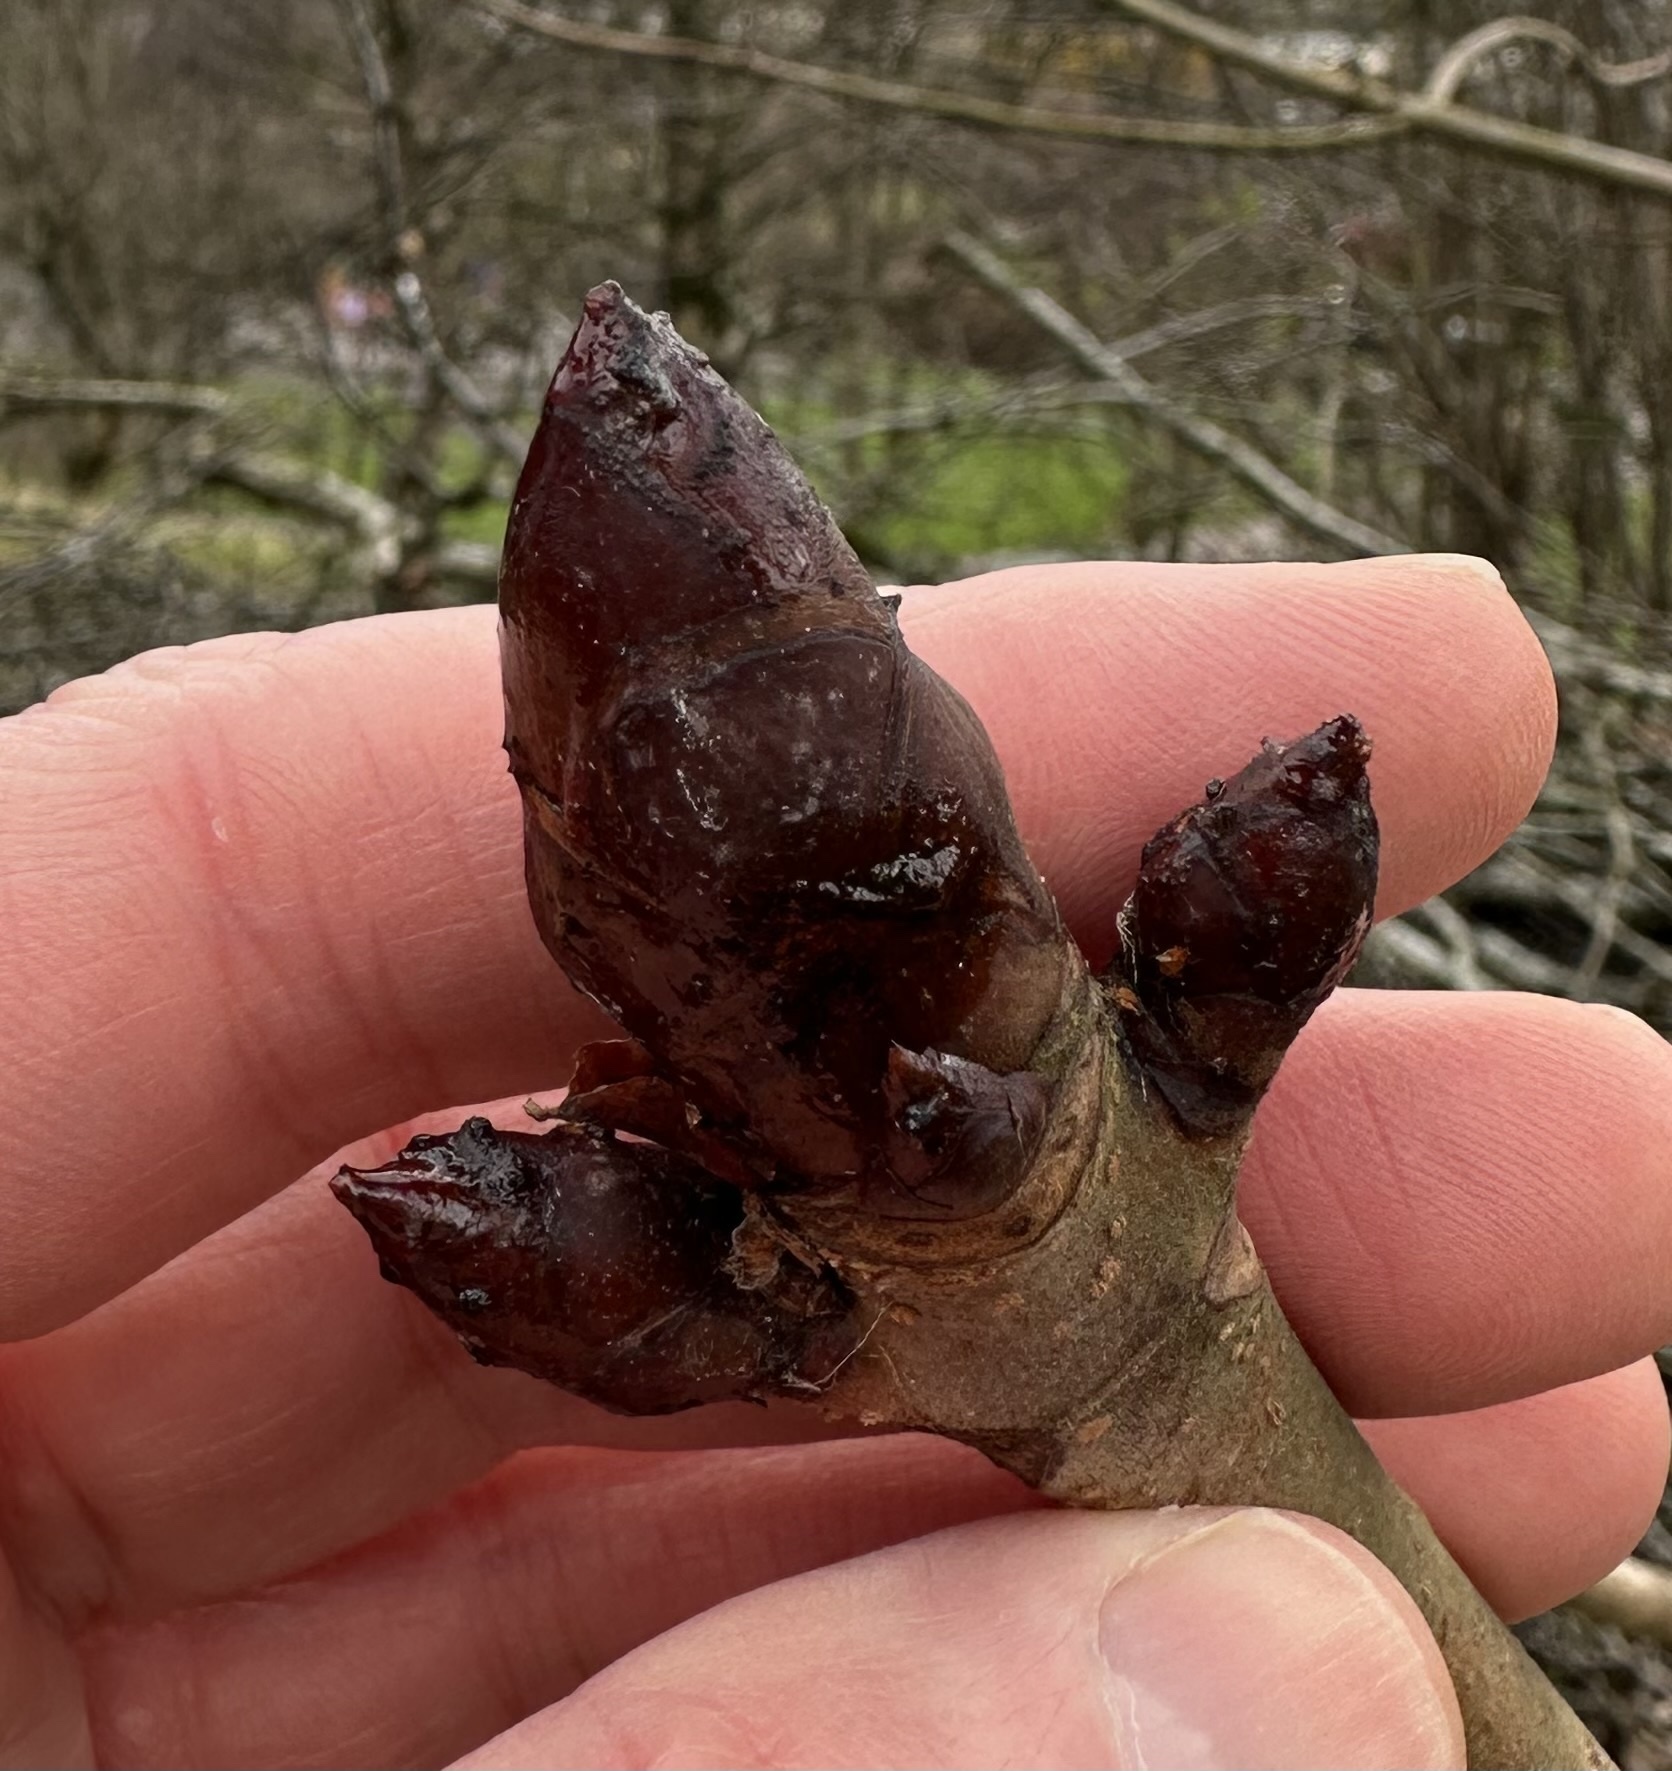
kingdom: Plantae
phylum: Tracheophyta
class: Magnoliopsida
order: Sapindales
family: Sapindaceae
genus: Aesculus
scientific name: Aesculus hippocastanum
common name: Horse-chestnut
